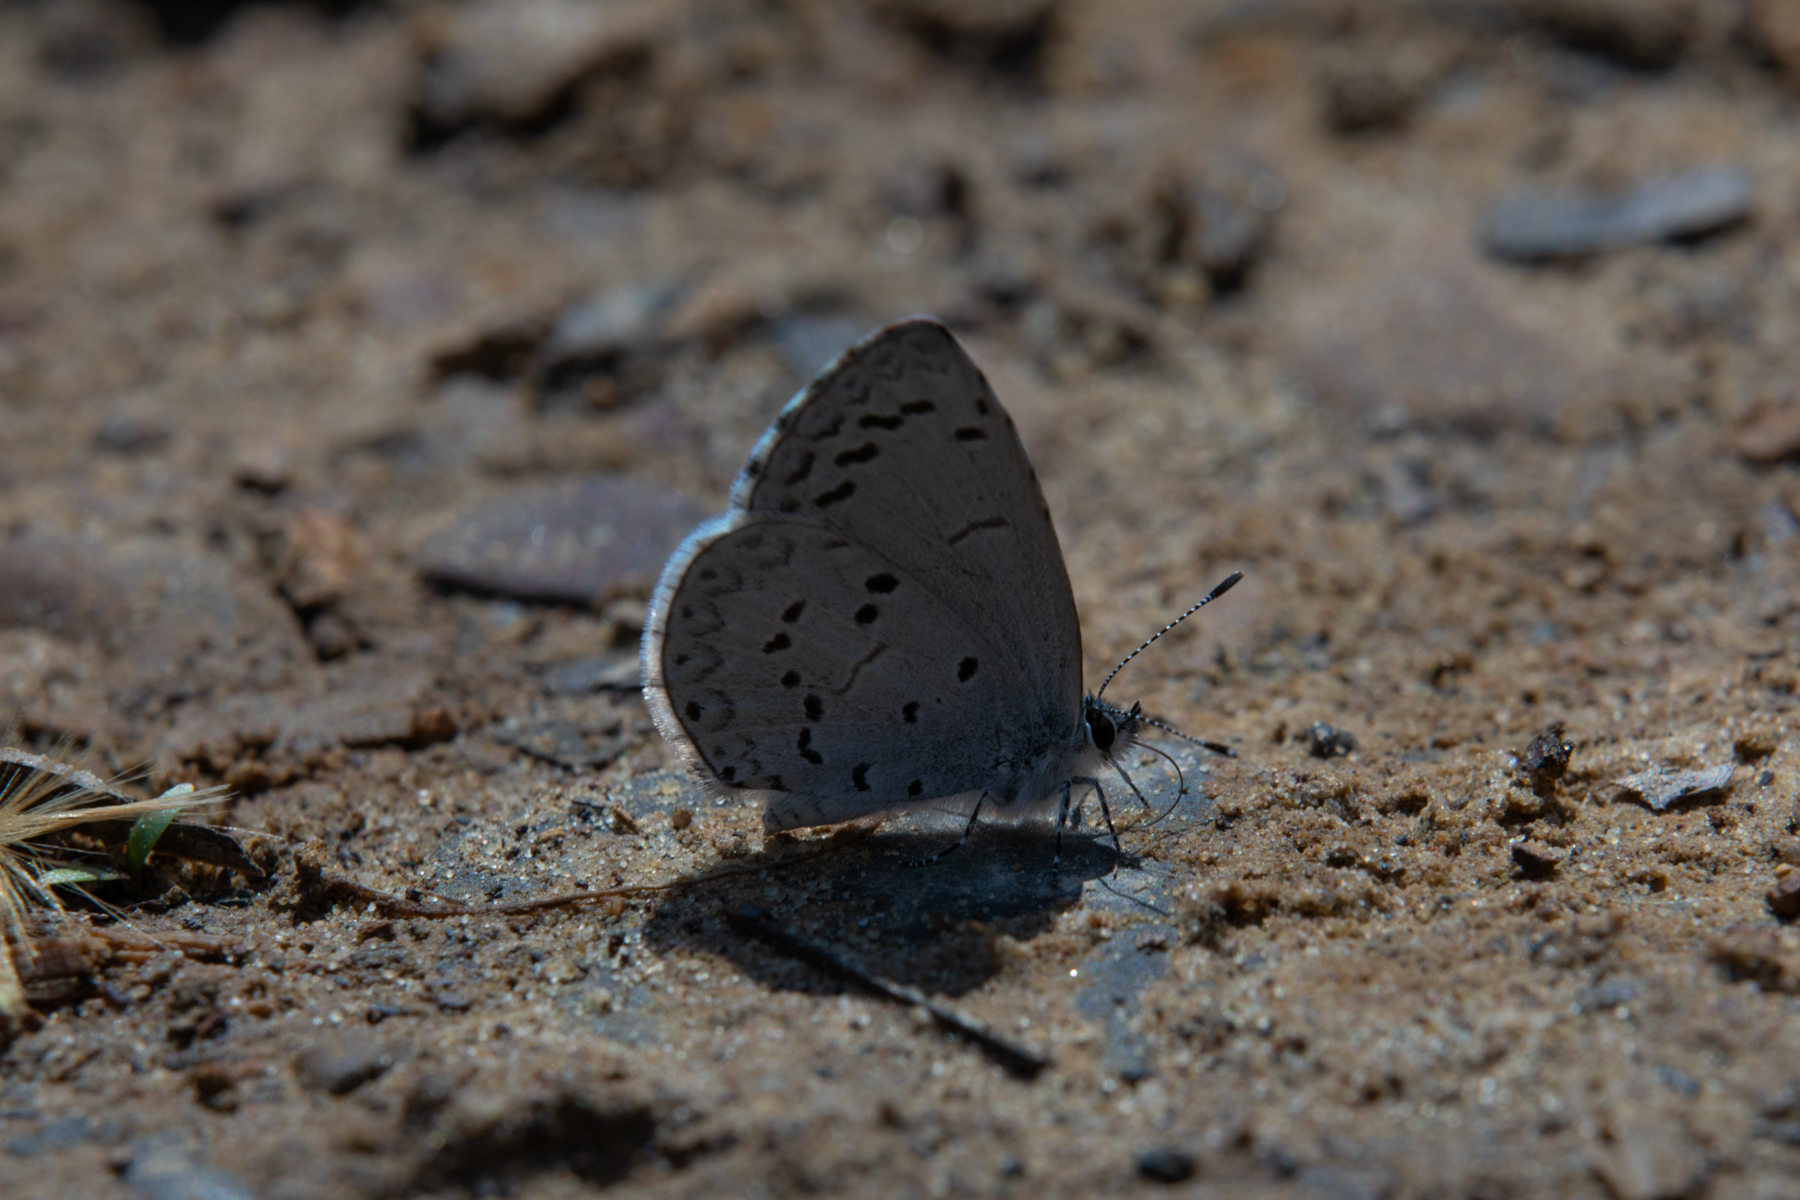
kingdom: Animalia
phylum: Arthropoda
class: Insecta
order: Lepidoptera
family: Lycaenidae
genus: Celastrina
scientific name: Celastrina
